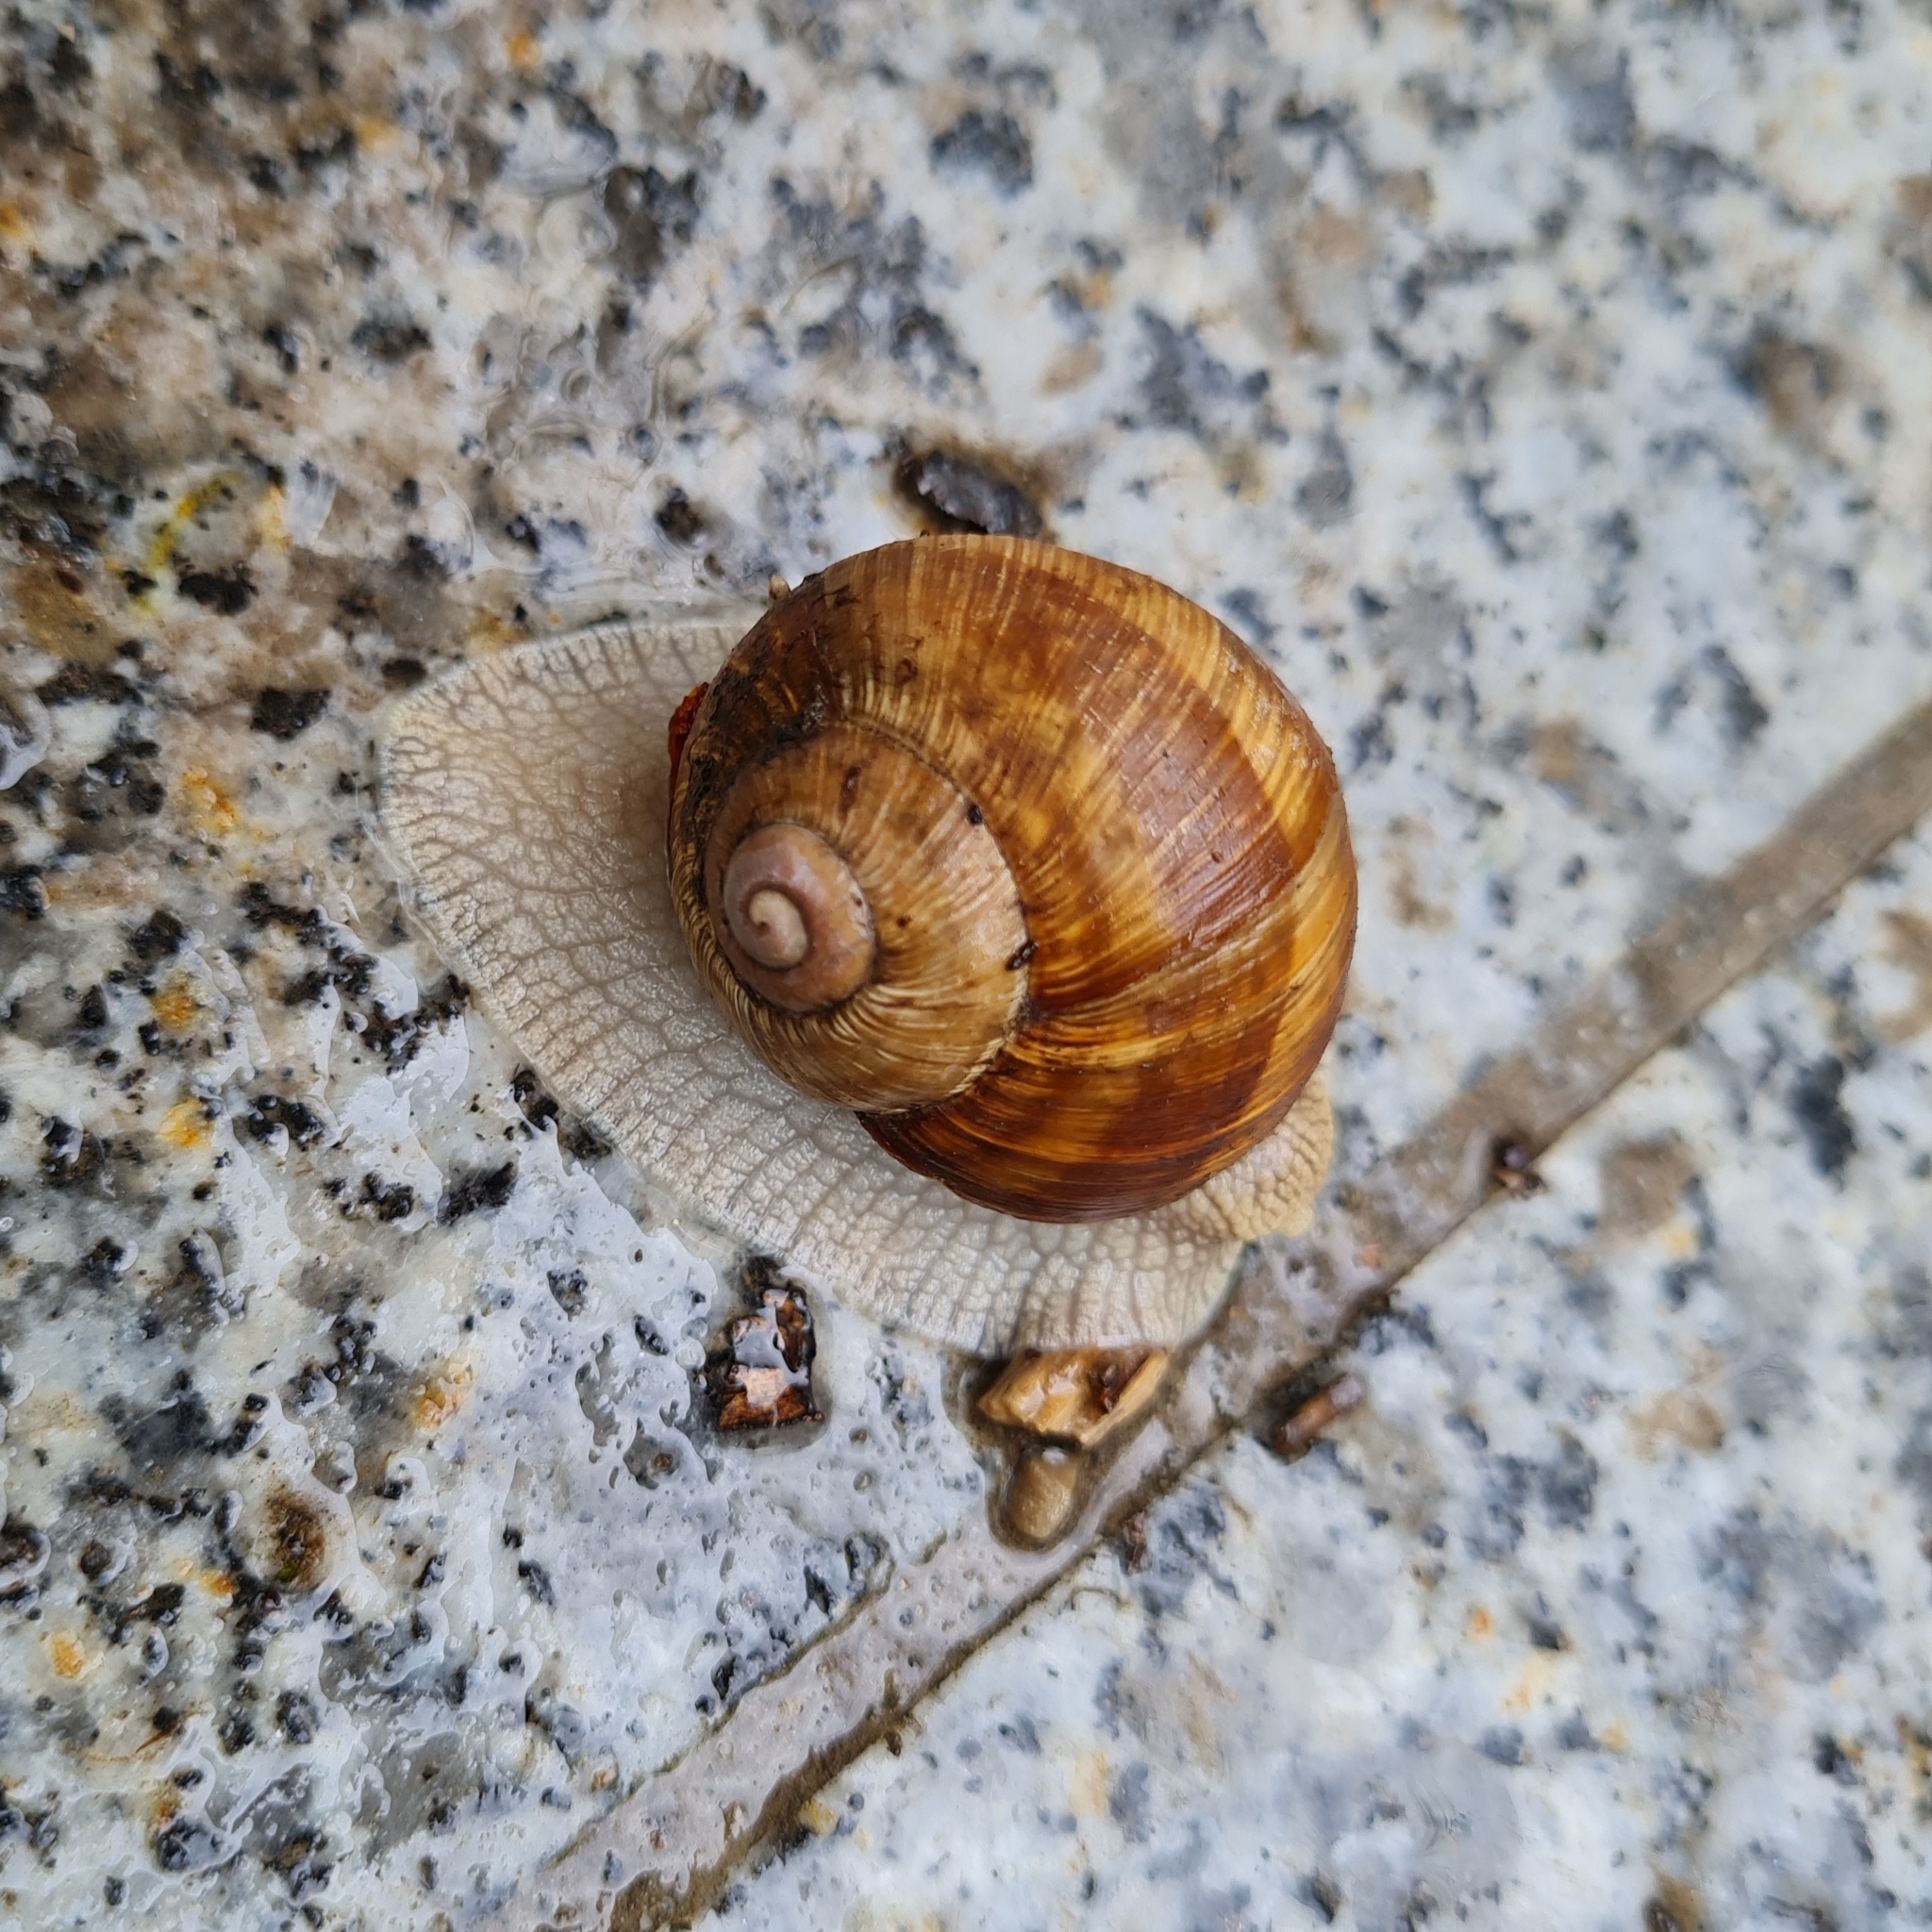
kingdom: Animalia
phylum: Mollusca
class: Gastropoda
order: Stylommatophora
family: Helicidae
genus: Helix
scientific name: Helix pomatia
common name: Roman snail
